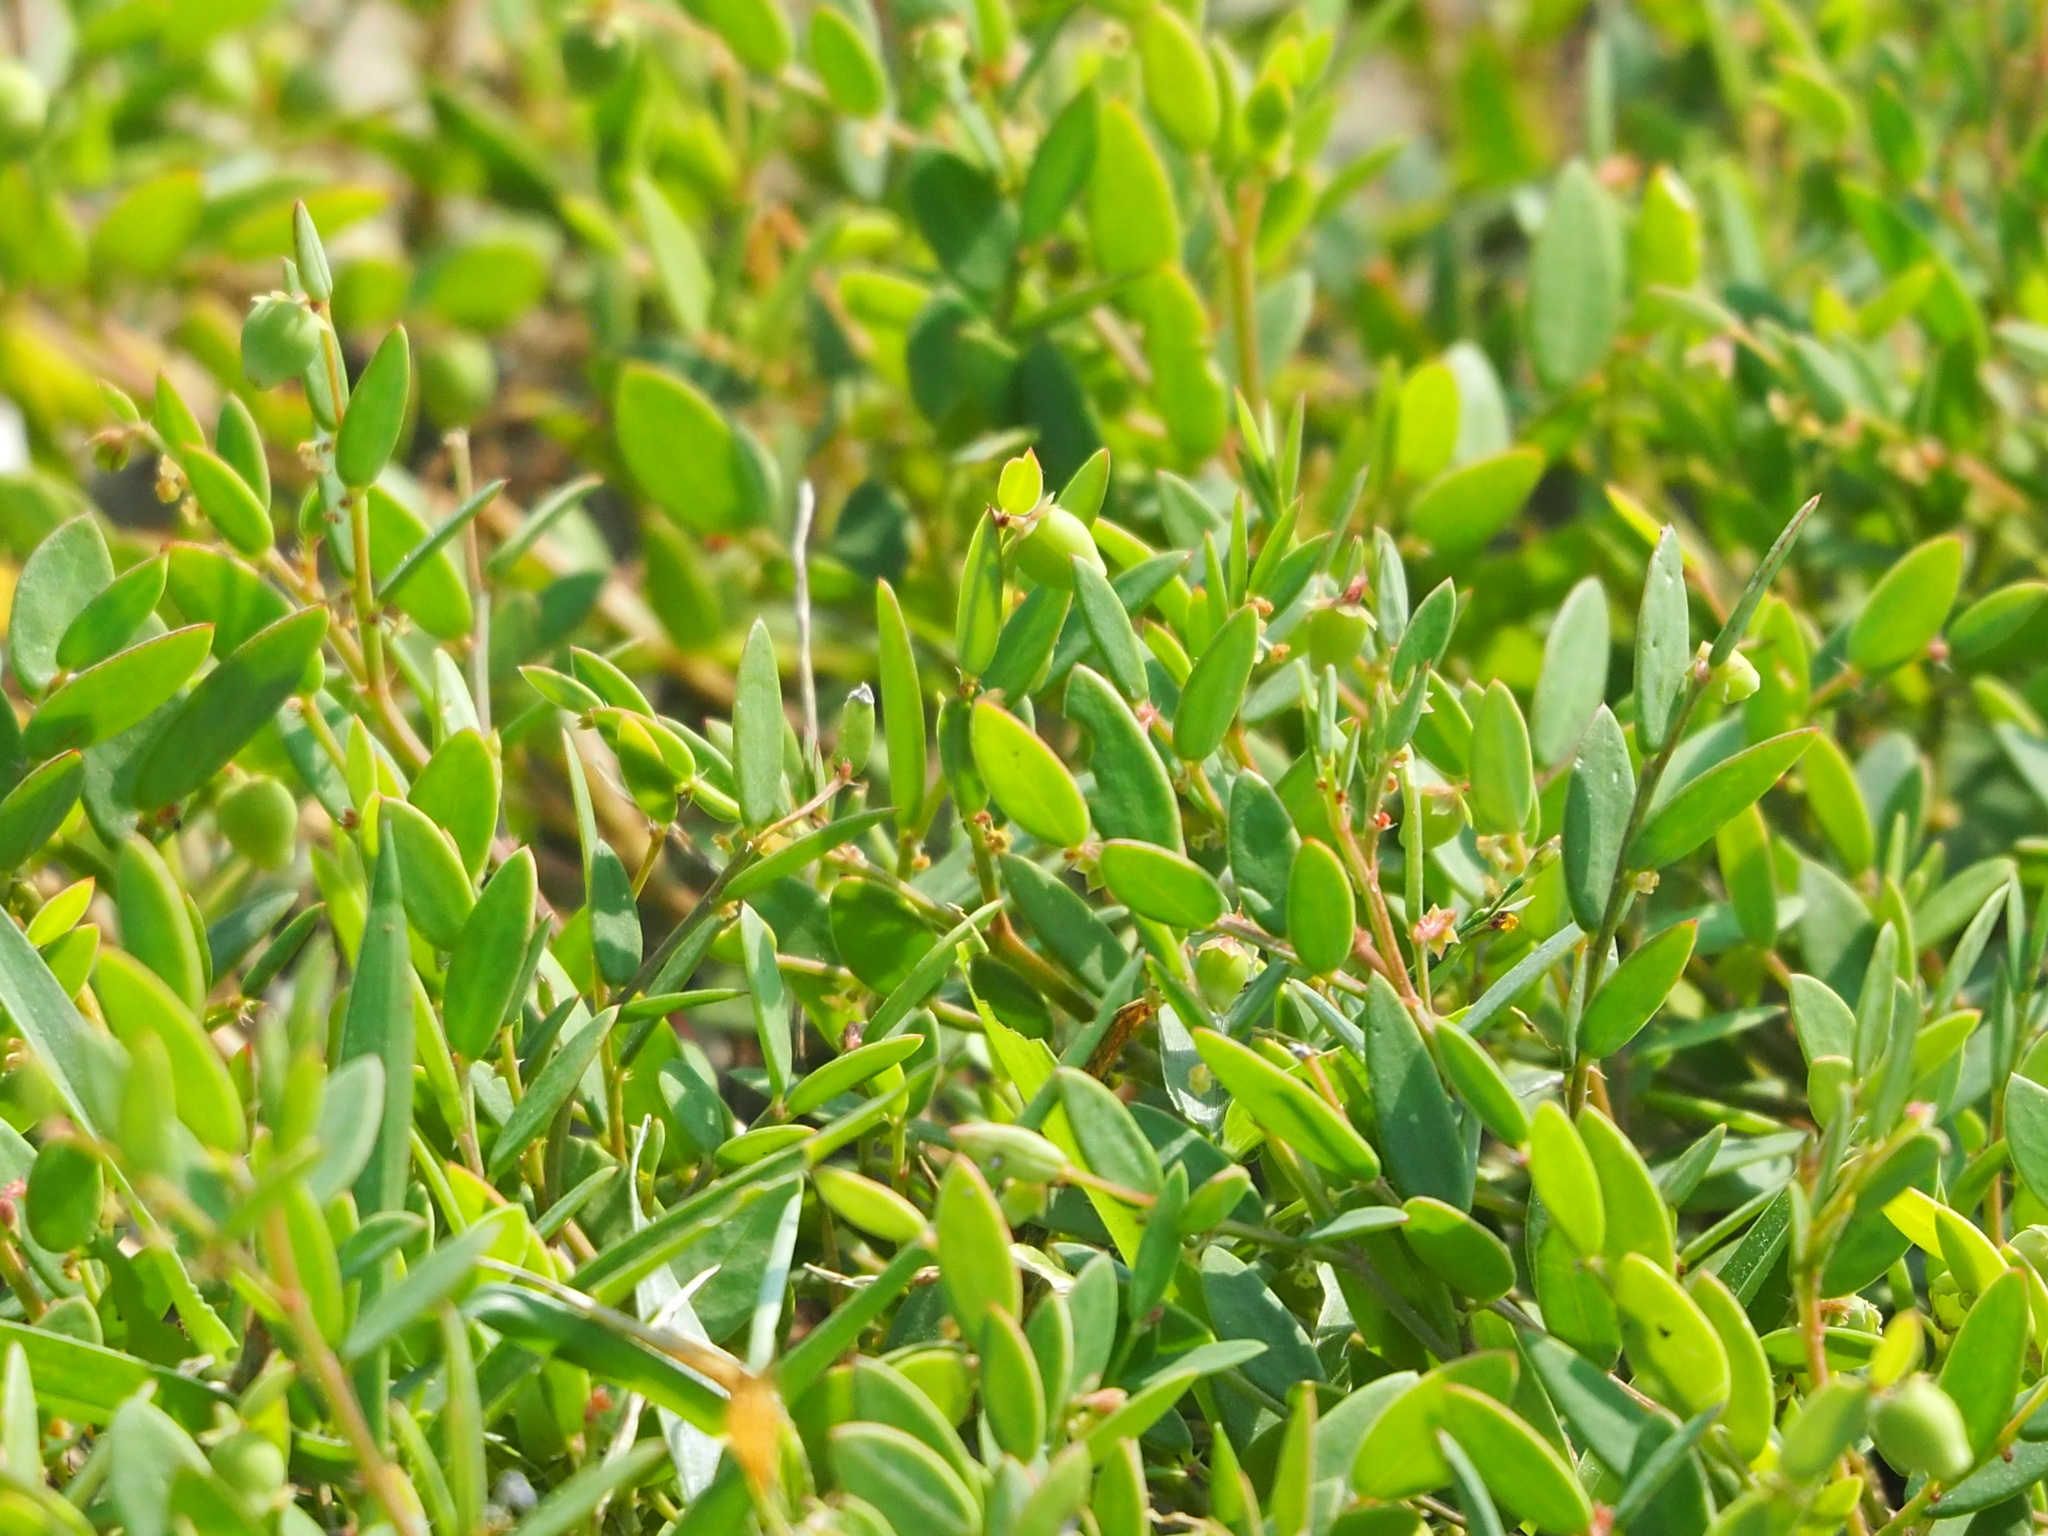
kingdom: Plantae
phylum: Tracheophyta
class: Magnoliopsida
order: Malpighiales
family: Phyllanthaceae
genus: Synostemon
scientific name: Synostemon bacciformis
